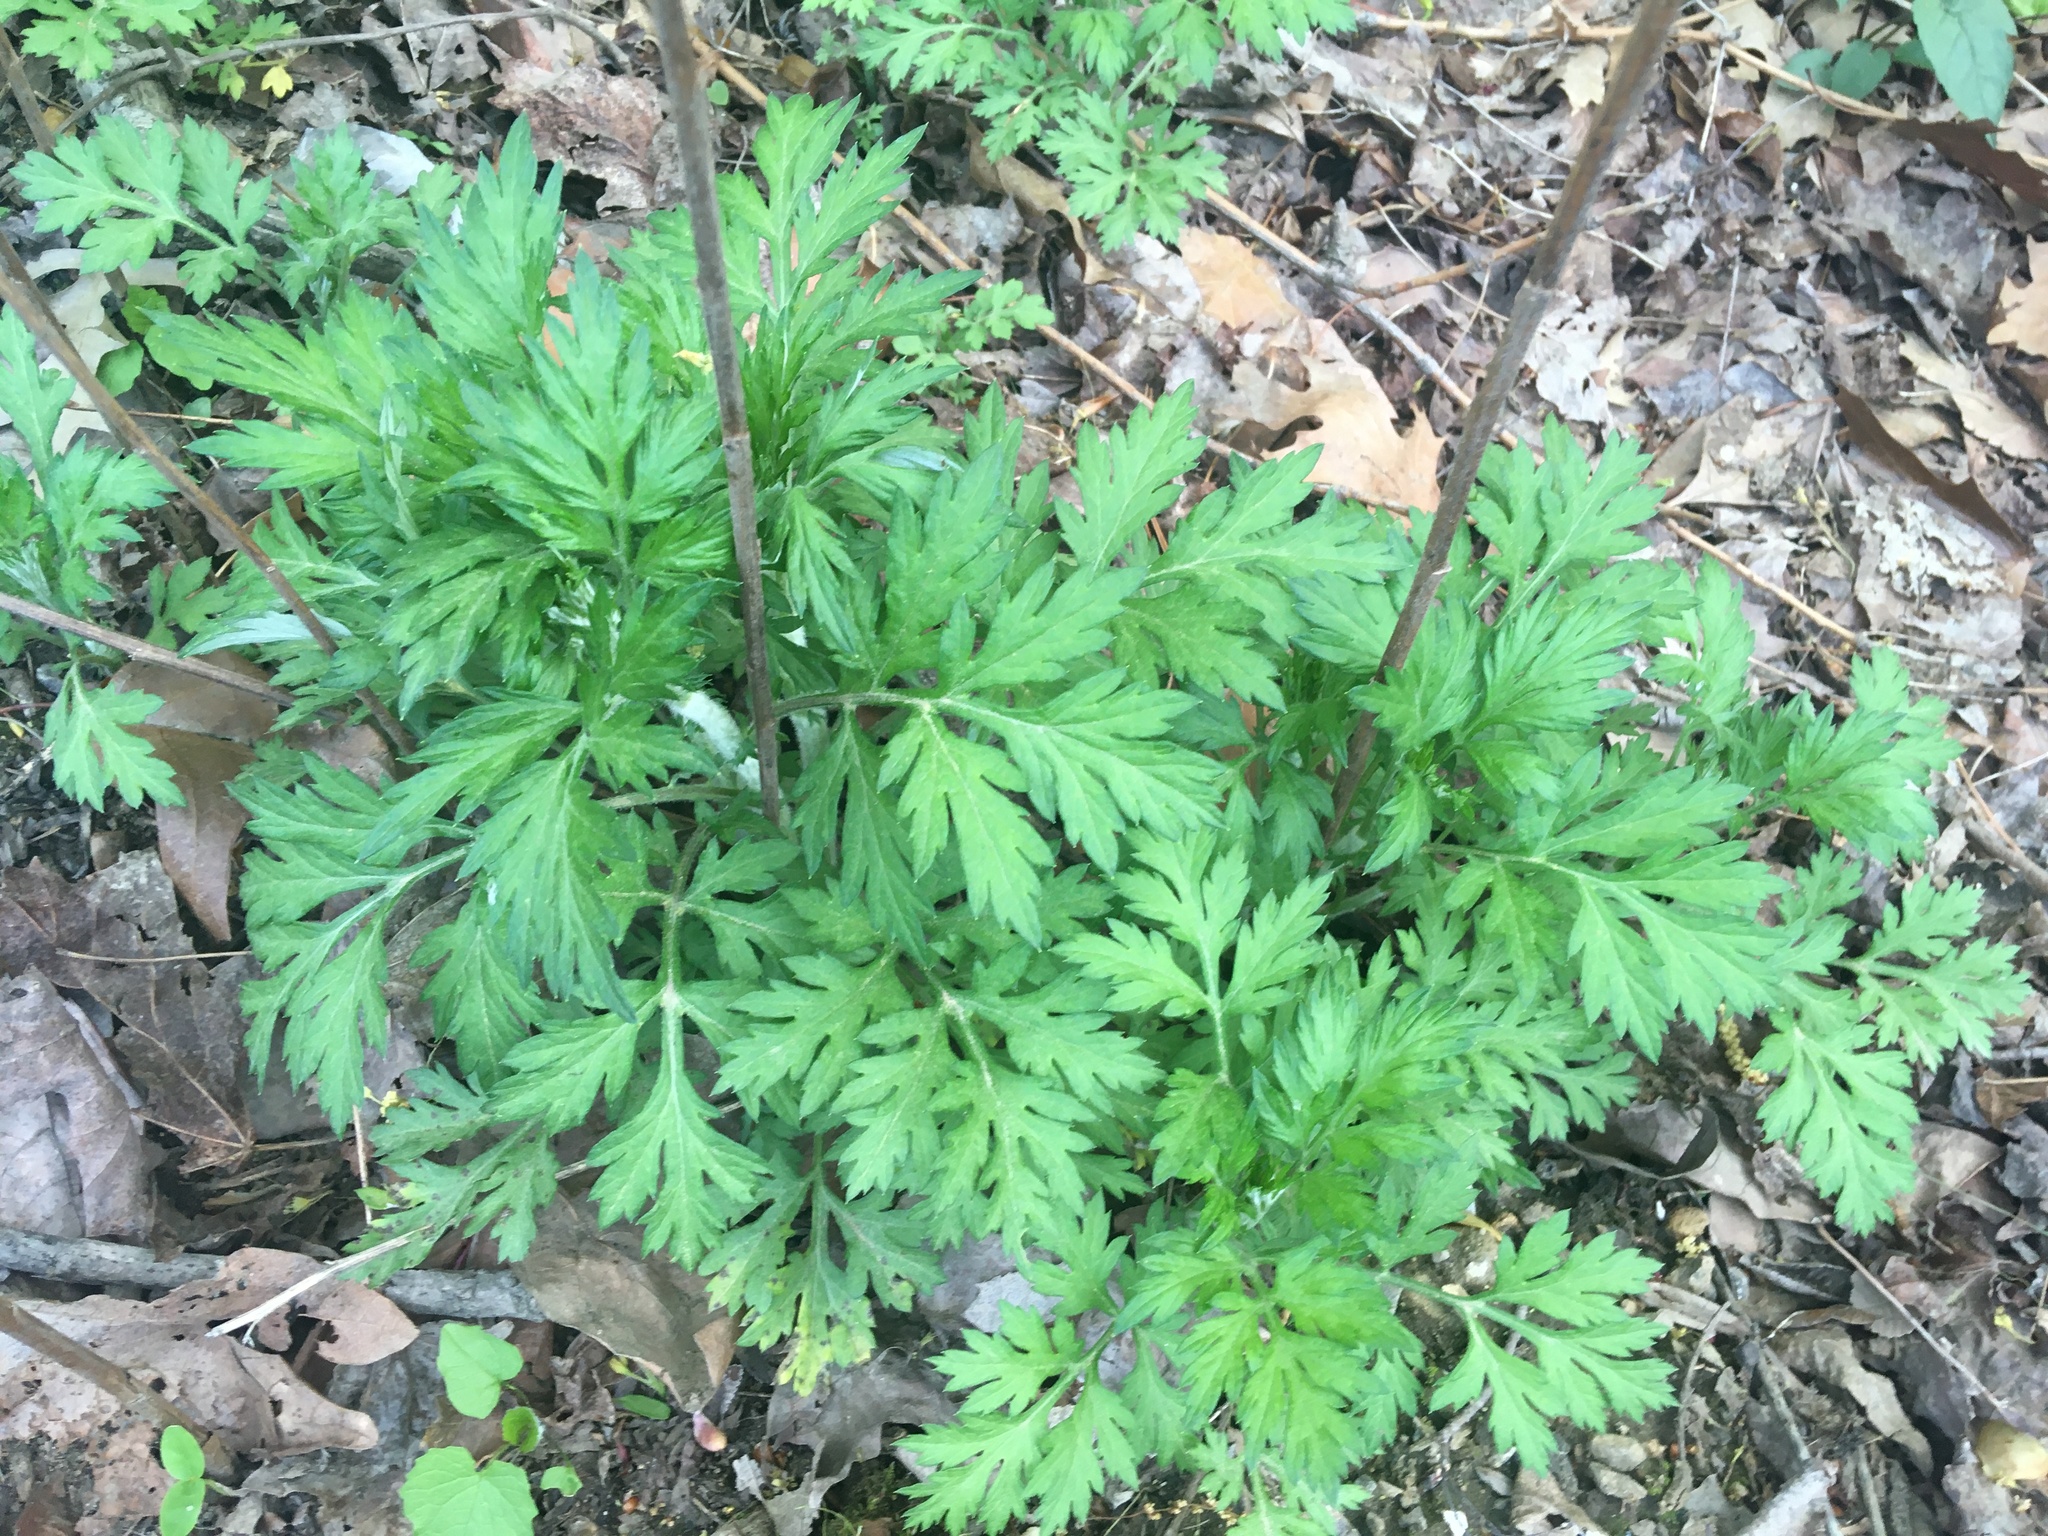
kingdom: Plantae
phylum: Tracheophyta
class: Magnoliopsida
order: Asterales
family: Asteraceae
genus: Artemisia
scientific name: Artemisia vulgaris
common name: Mugwort
